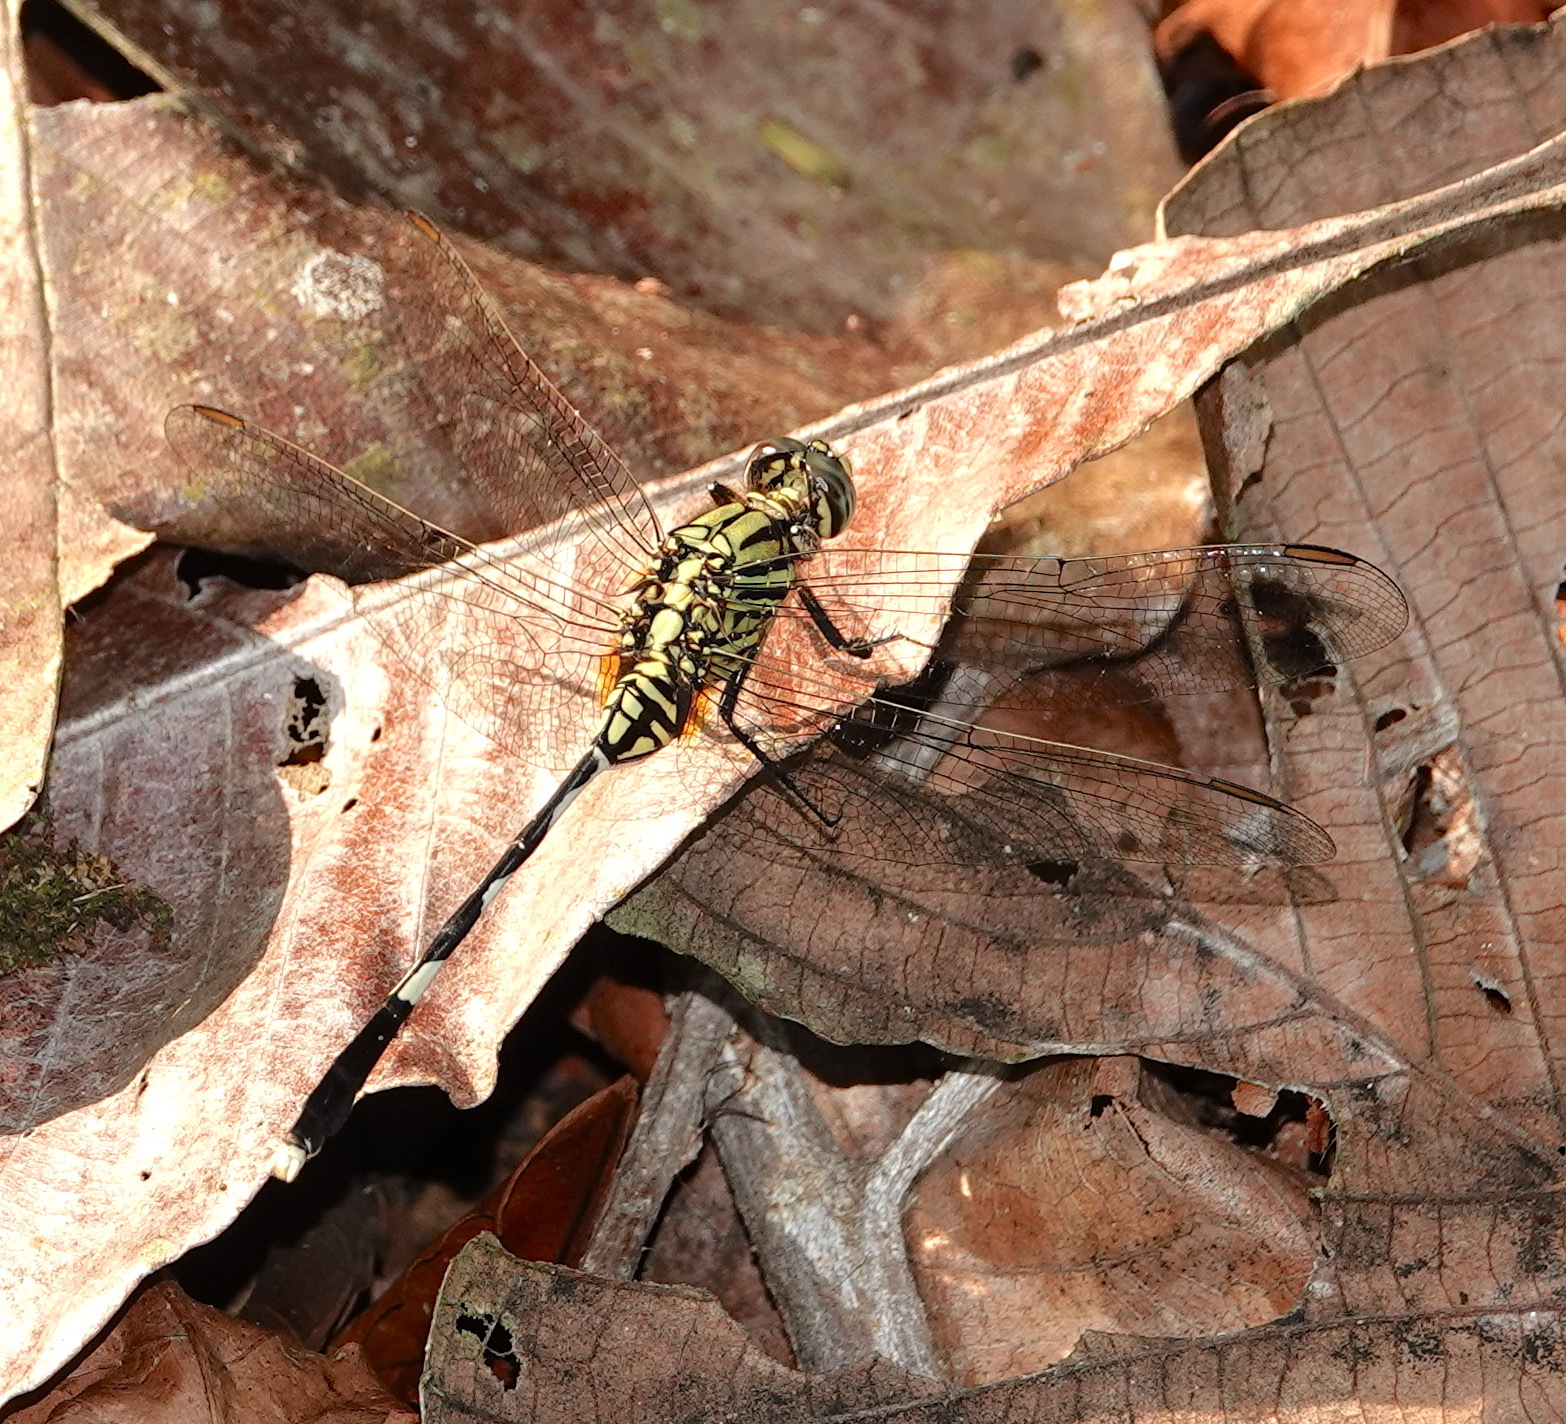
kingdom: Animalia
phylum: Arthropoda
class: Insecta
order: Odonata
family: Libellulidae
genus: Orthetrum
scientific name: Orthetrum sabina
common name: Slender skimmer
